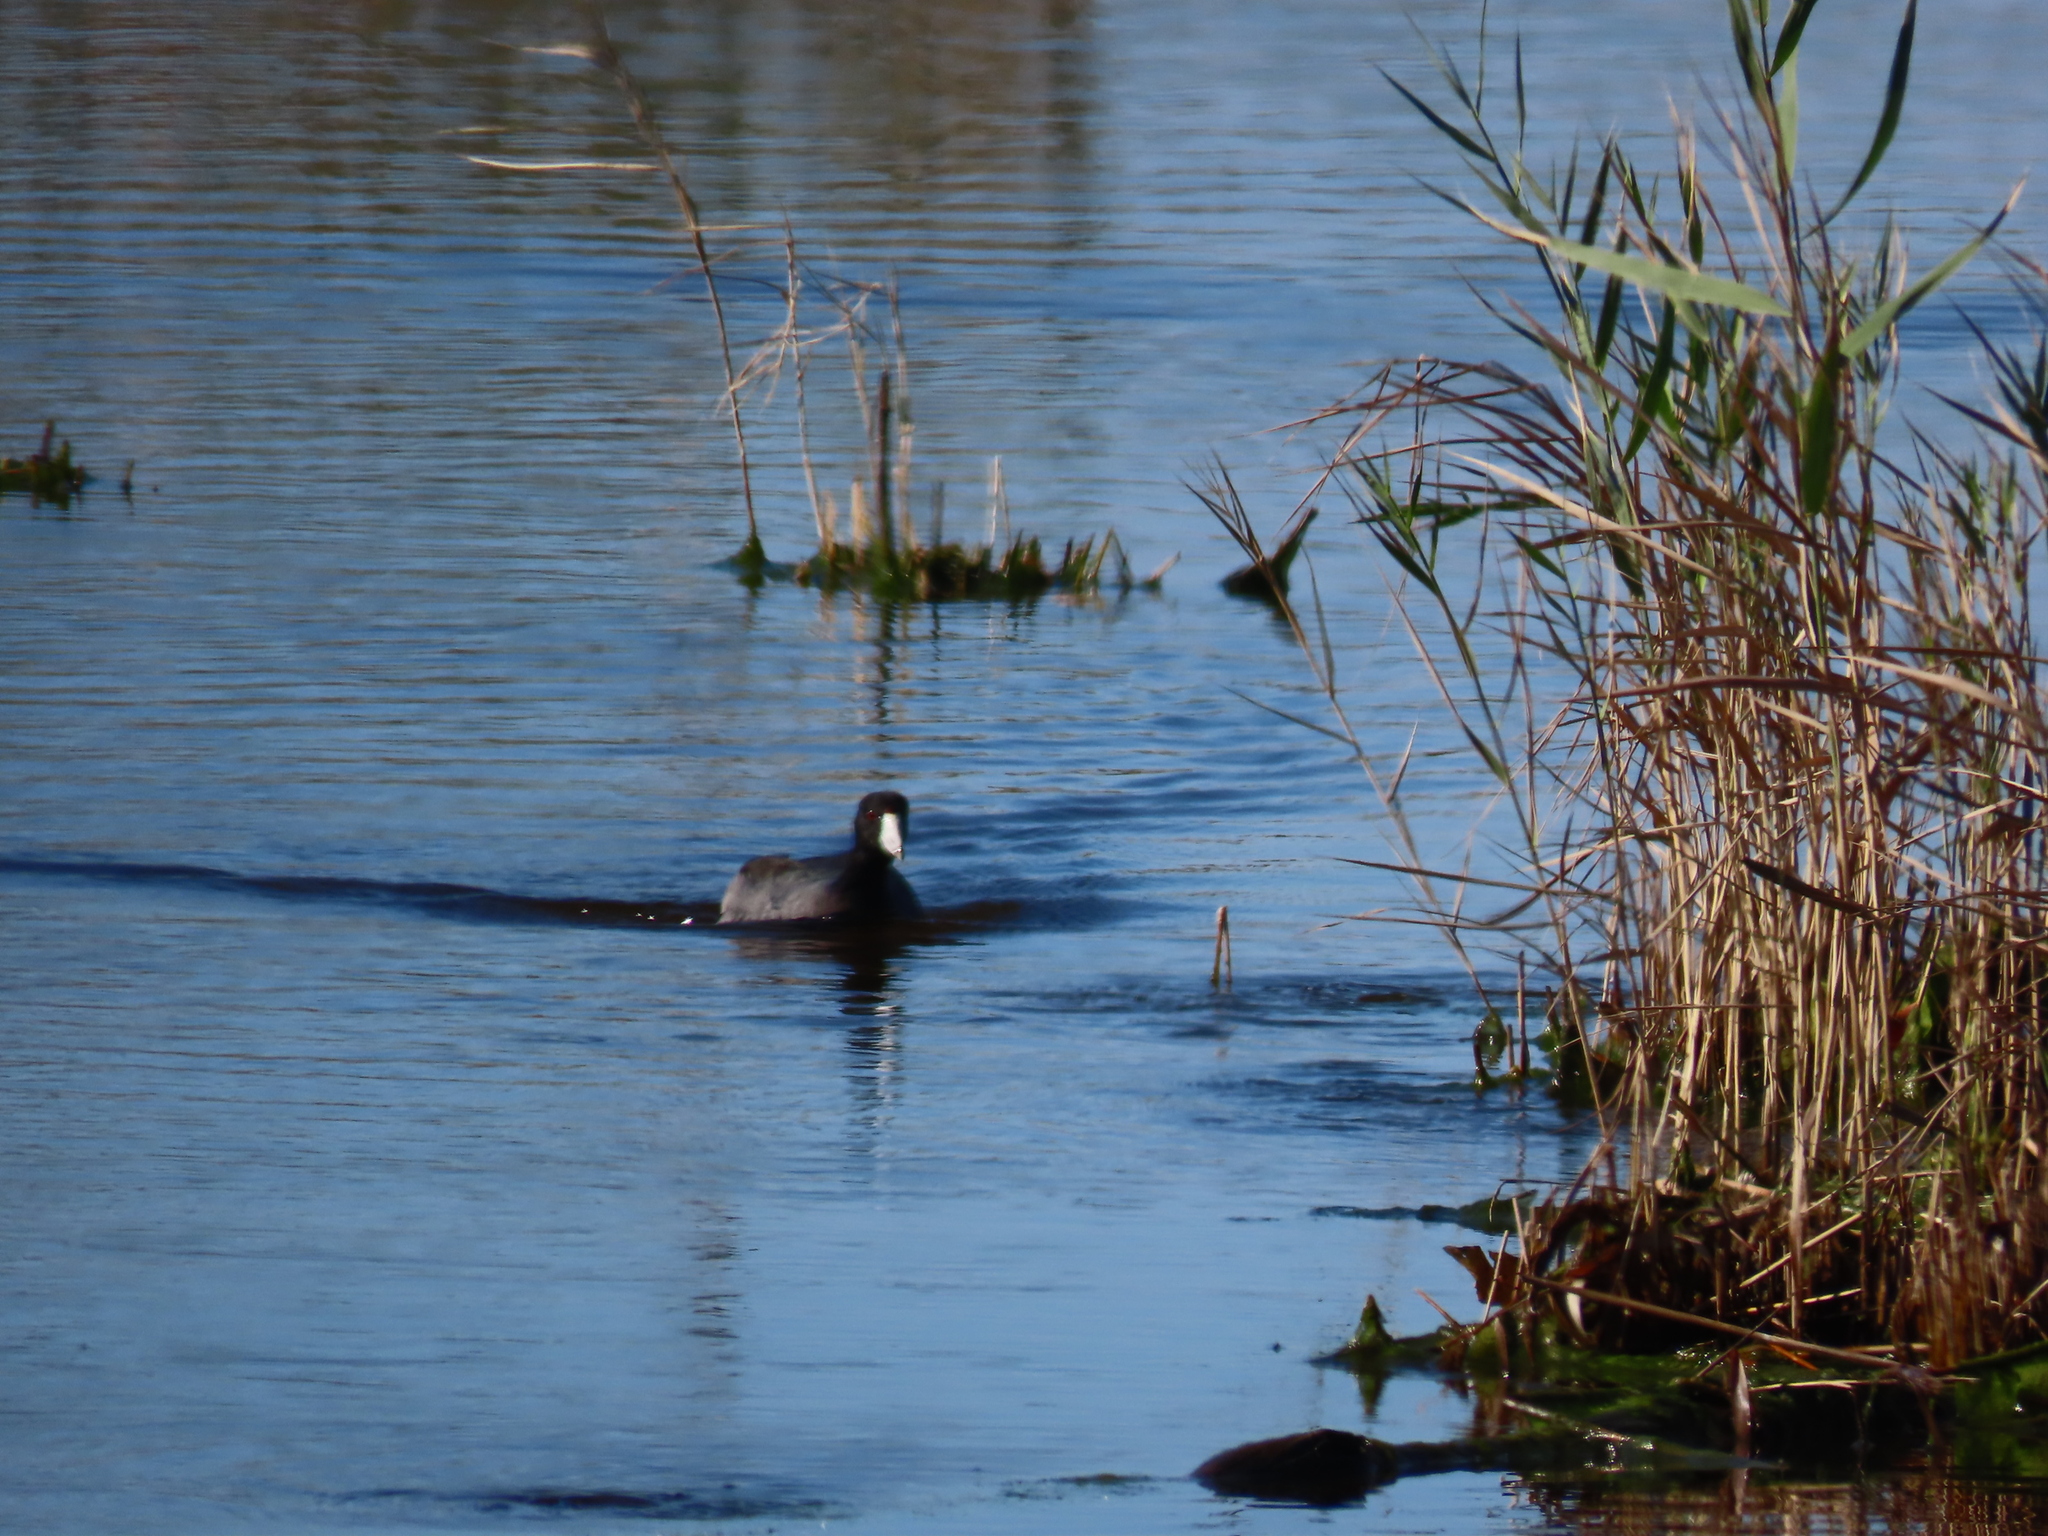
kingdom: Animalia
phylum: Chordata
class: Aves
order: Gruiformes
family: Rallidae
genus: Fulica
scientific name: Fulica americana
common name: American coot
